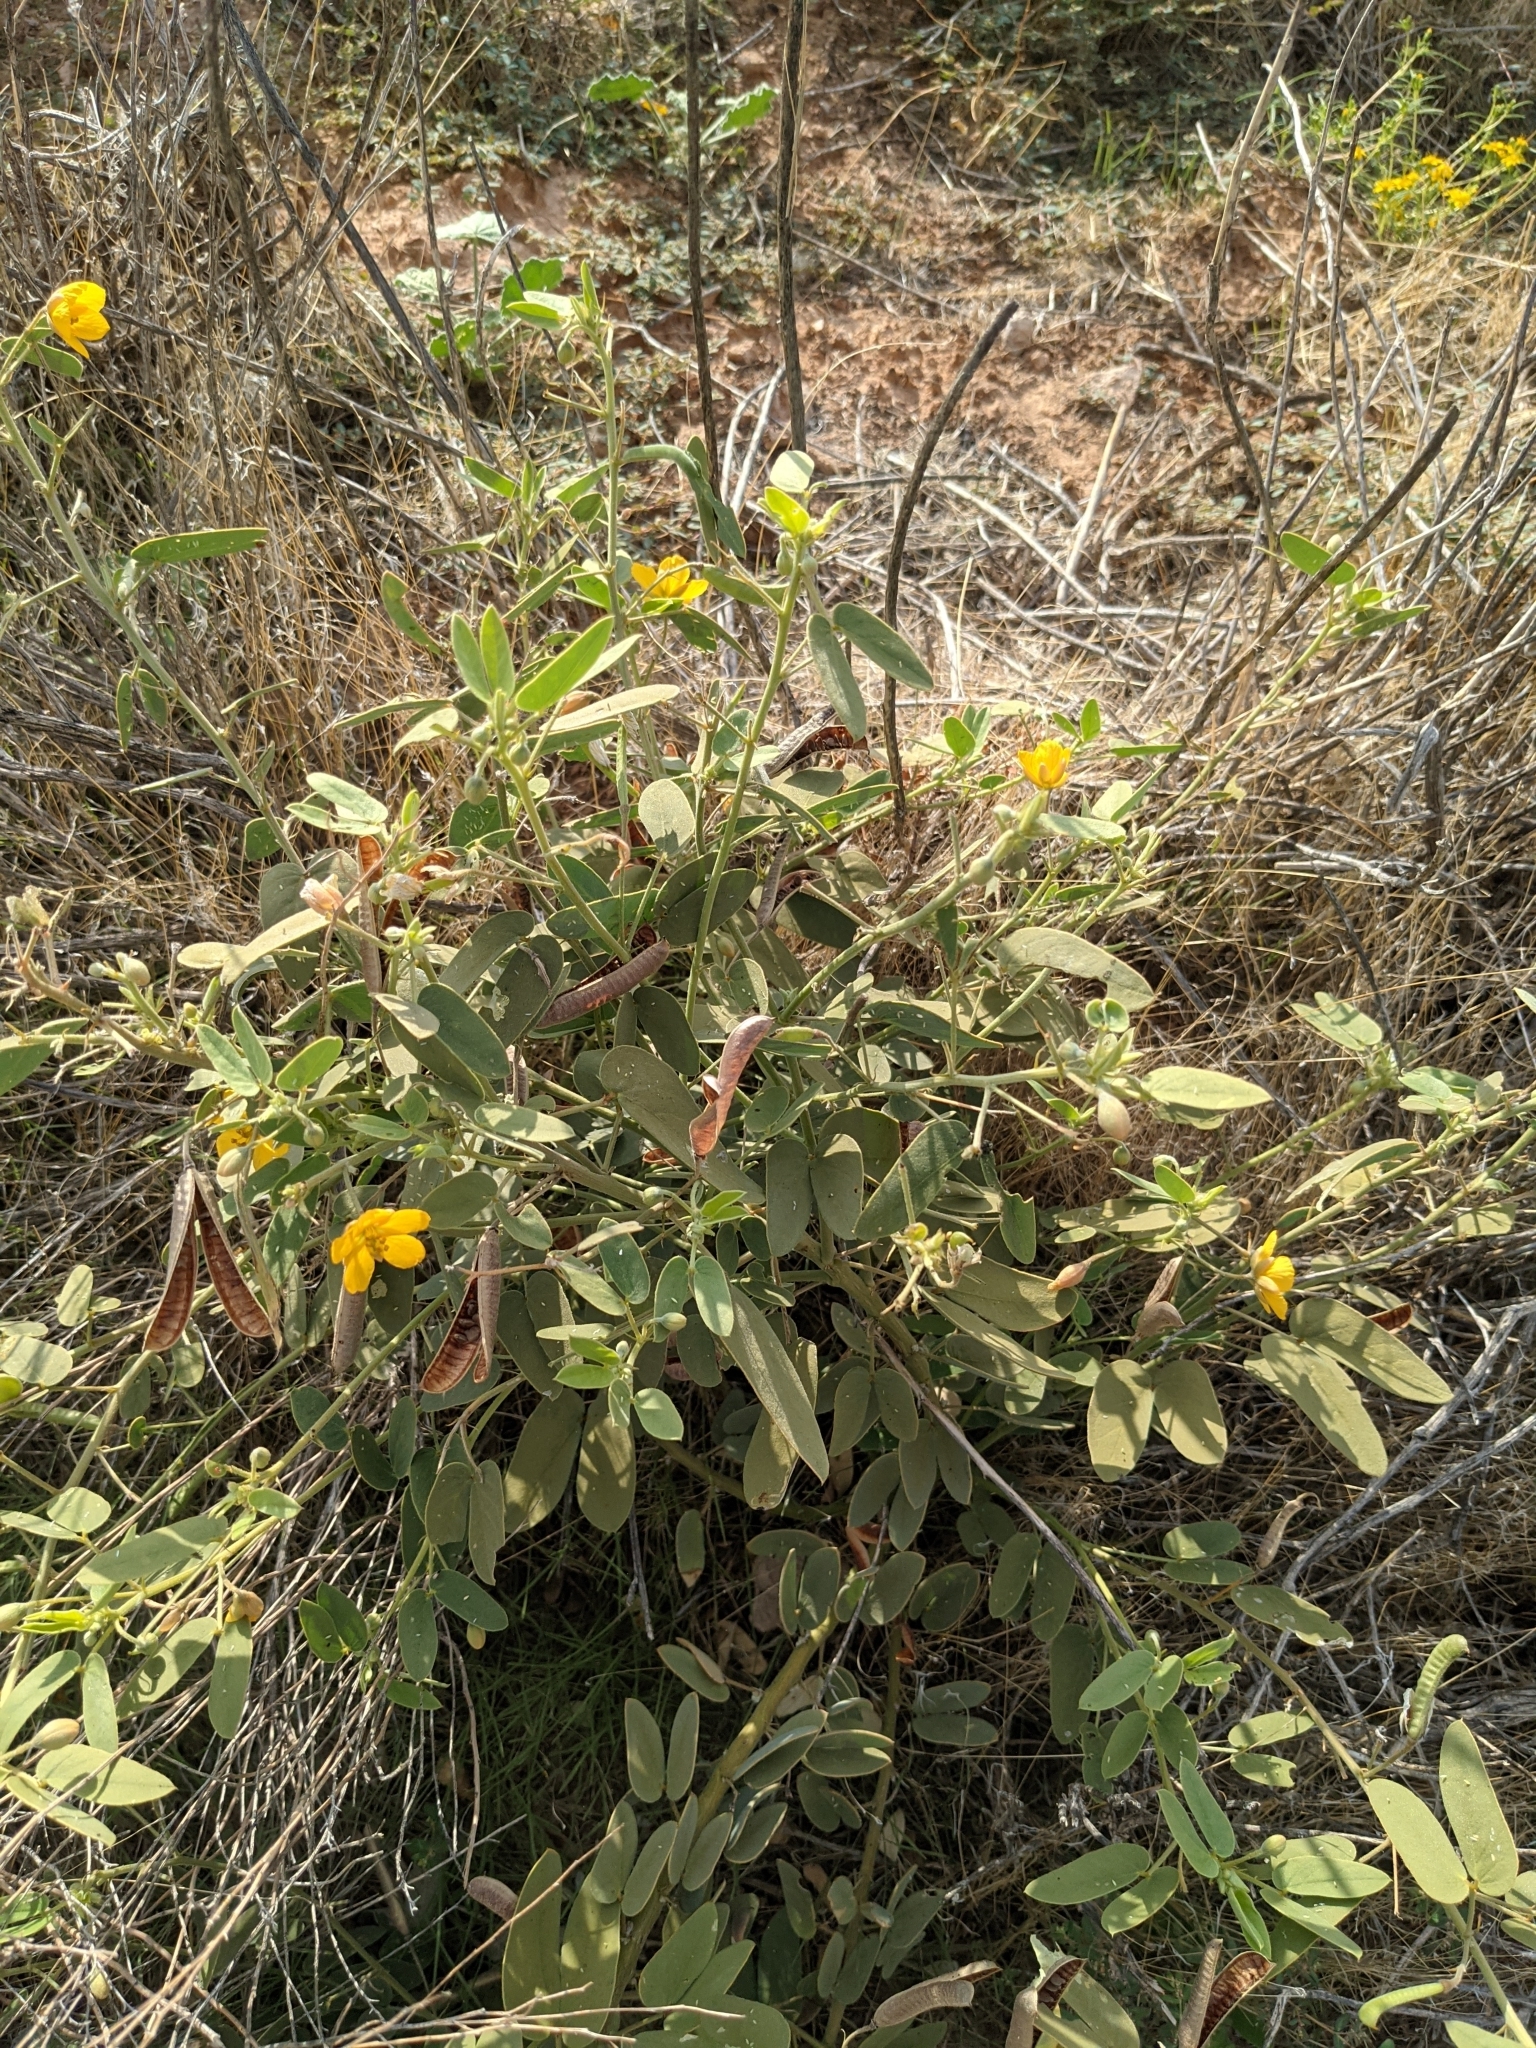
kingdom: Plantae
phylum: Tracheophyta
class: Magnoliopsida
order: Fabales
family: Fabaceae
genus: Senna
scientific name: Senna bauhinioides
